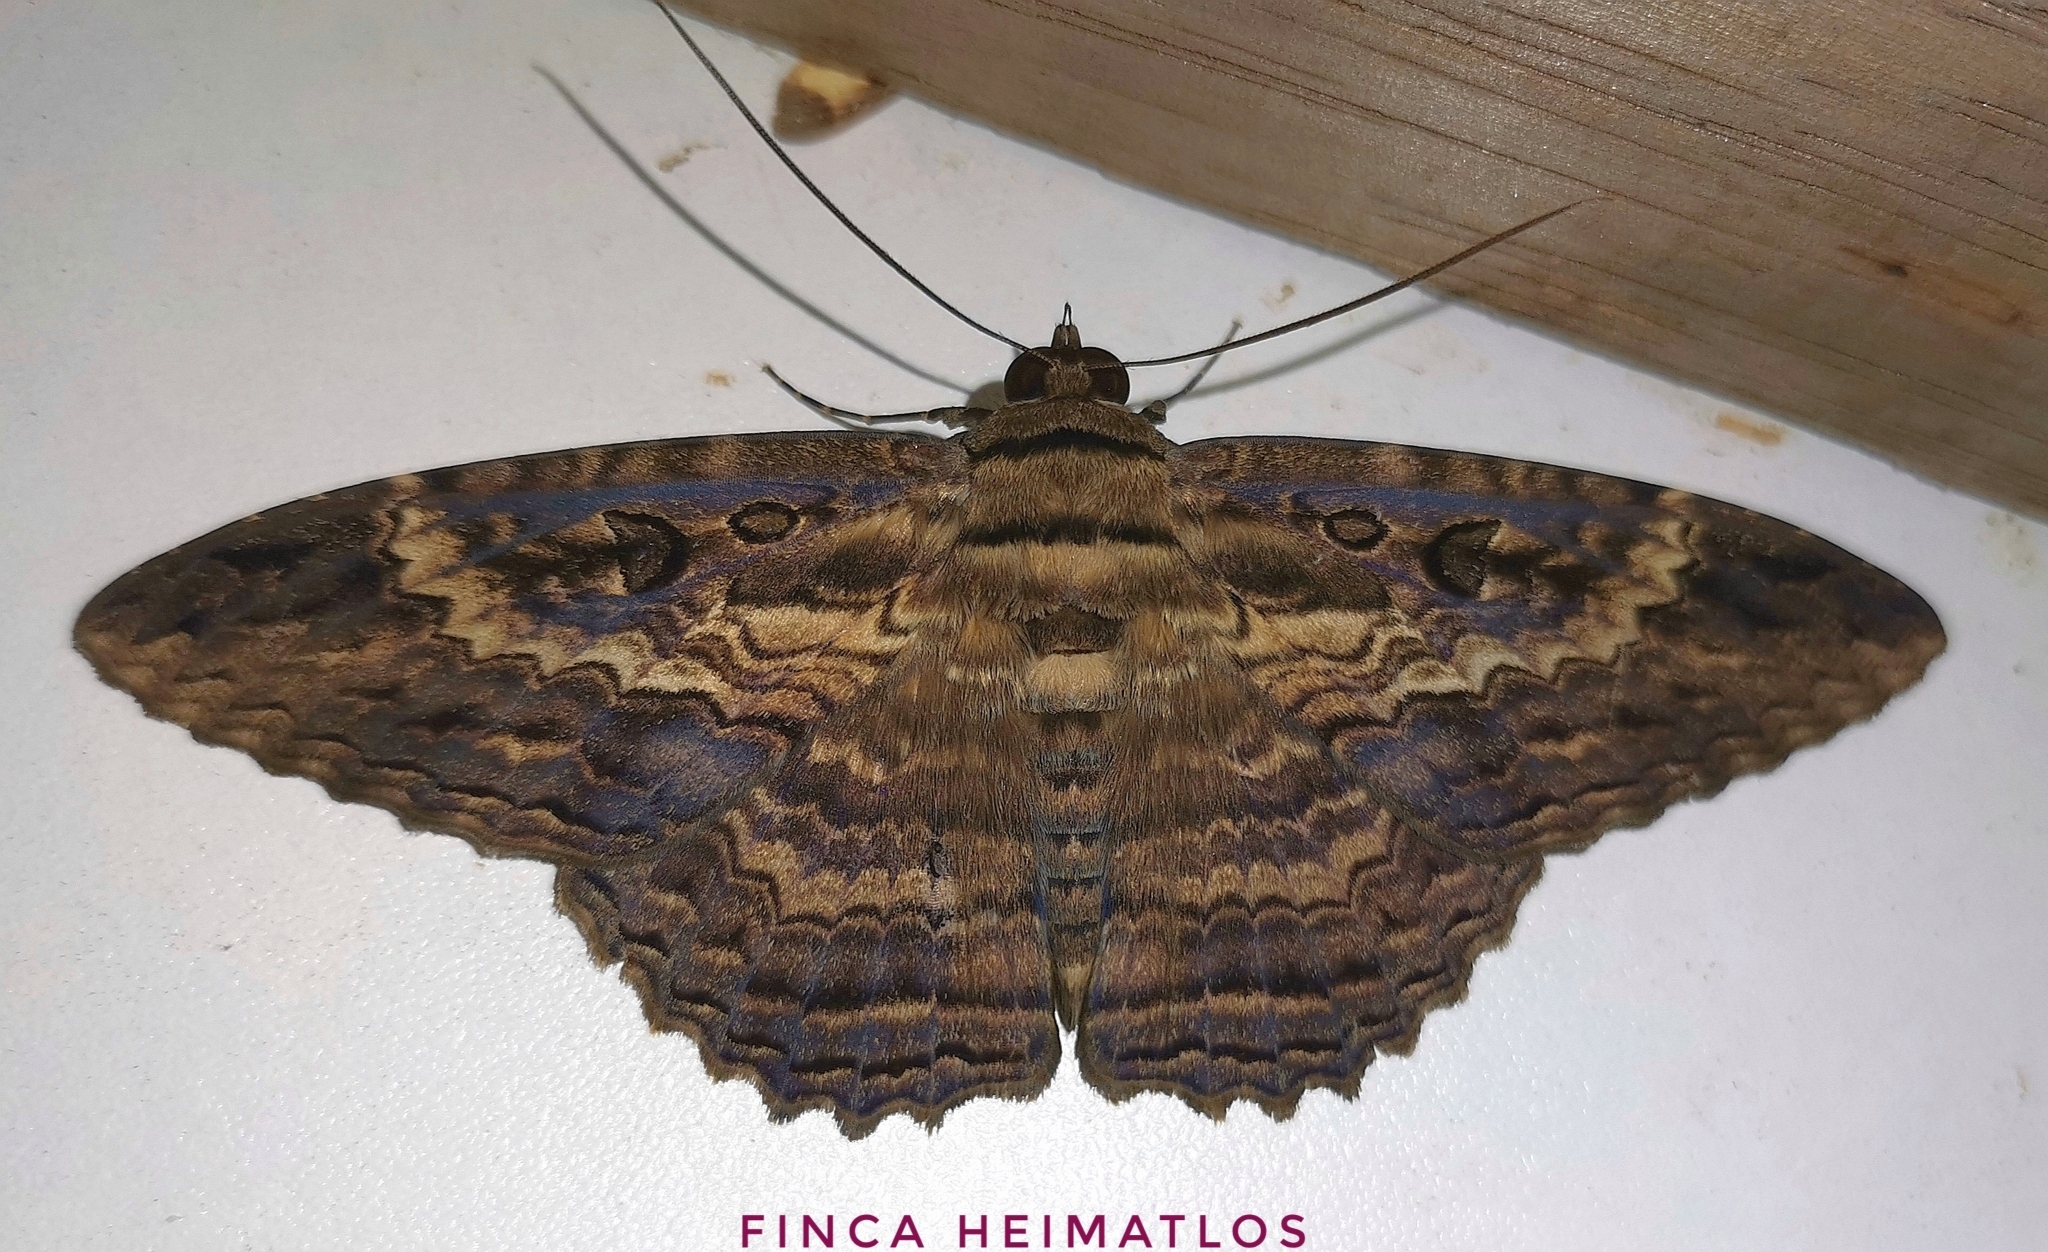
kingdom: Animalia
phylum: Arthropoda
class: Insecta
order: Lepidoptera
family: Erebidae
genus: Feigeria
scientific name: Feigeria buteo
